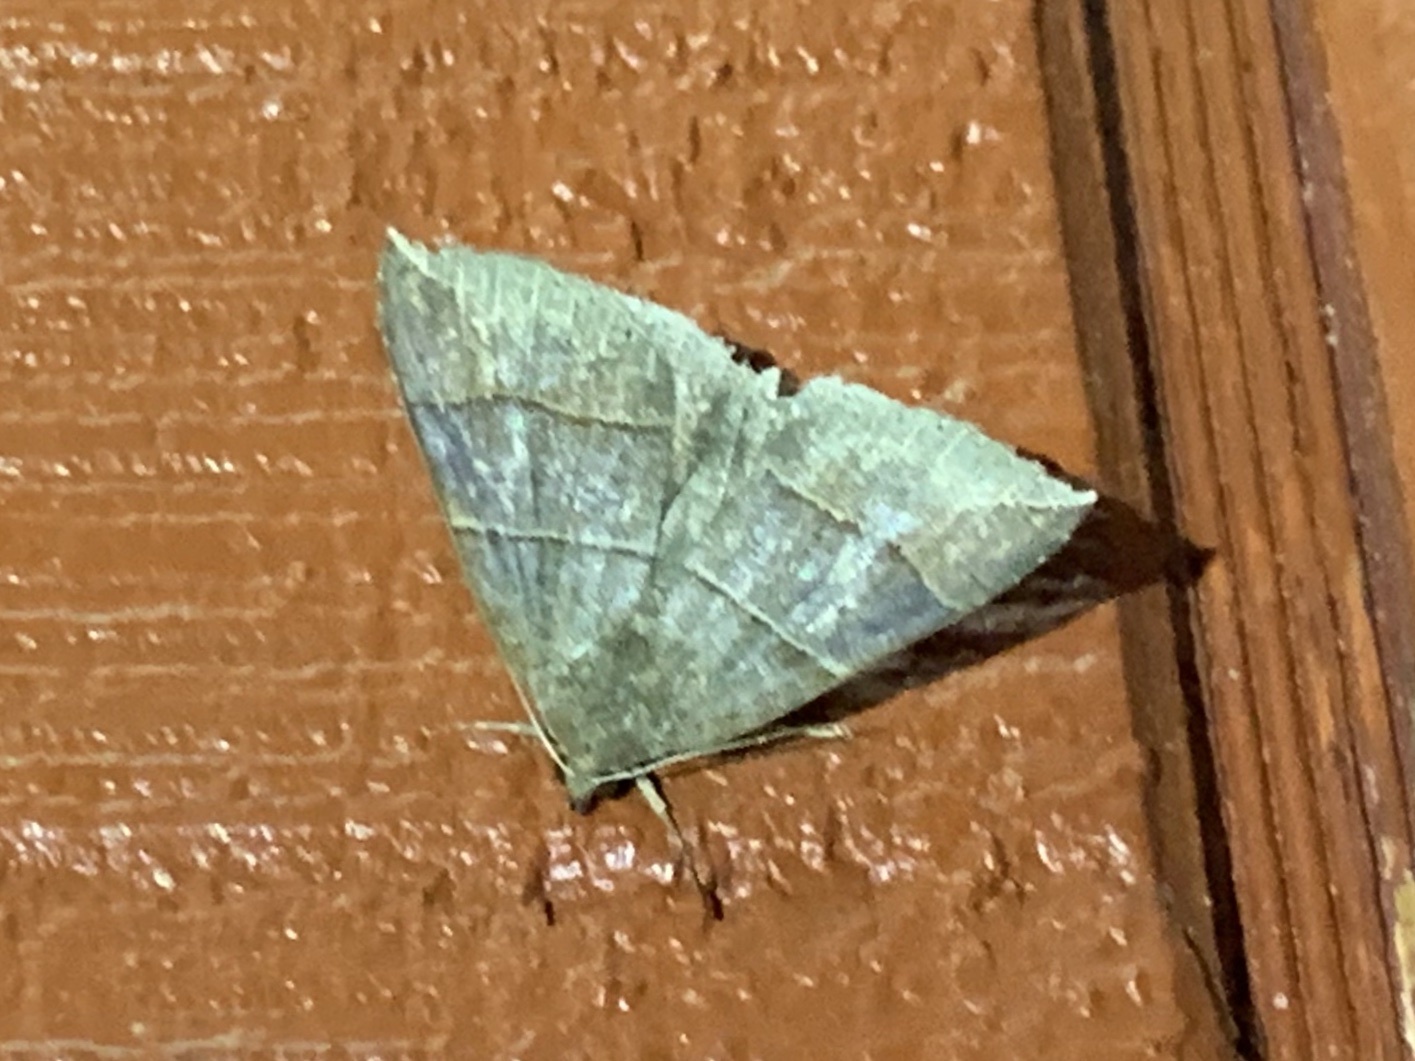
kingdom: Animalia
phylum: Arthropoda
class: Insecta
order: Lepidoptera
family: Erebidae
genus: Parallelia
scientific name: Parallelia bistriaris
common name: Maple looper moth
